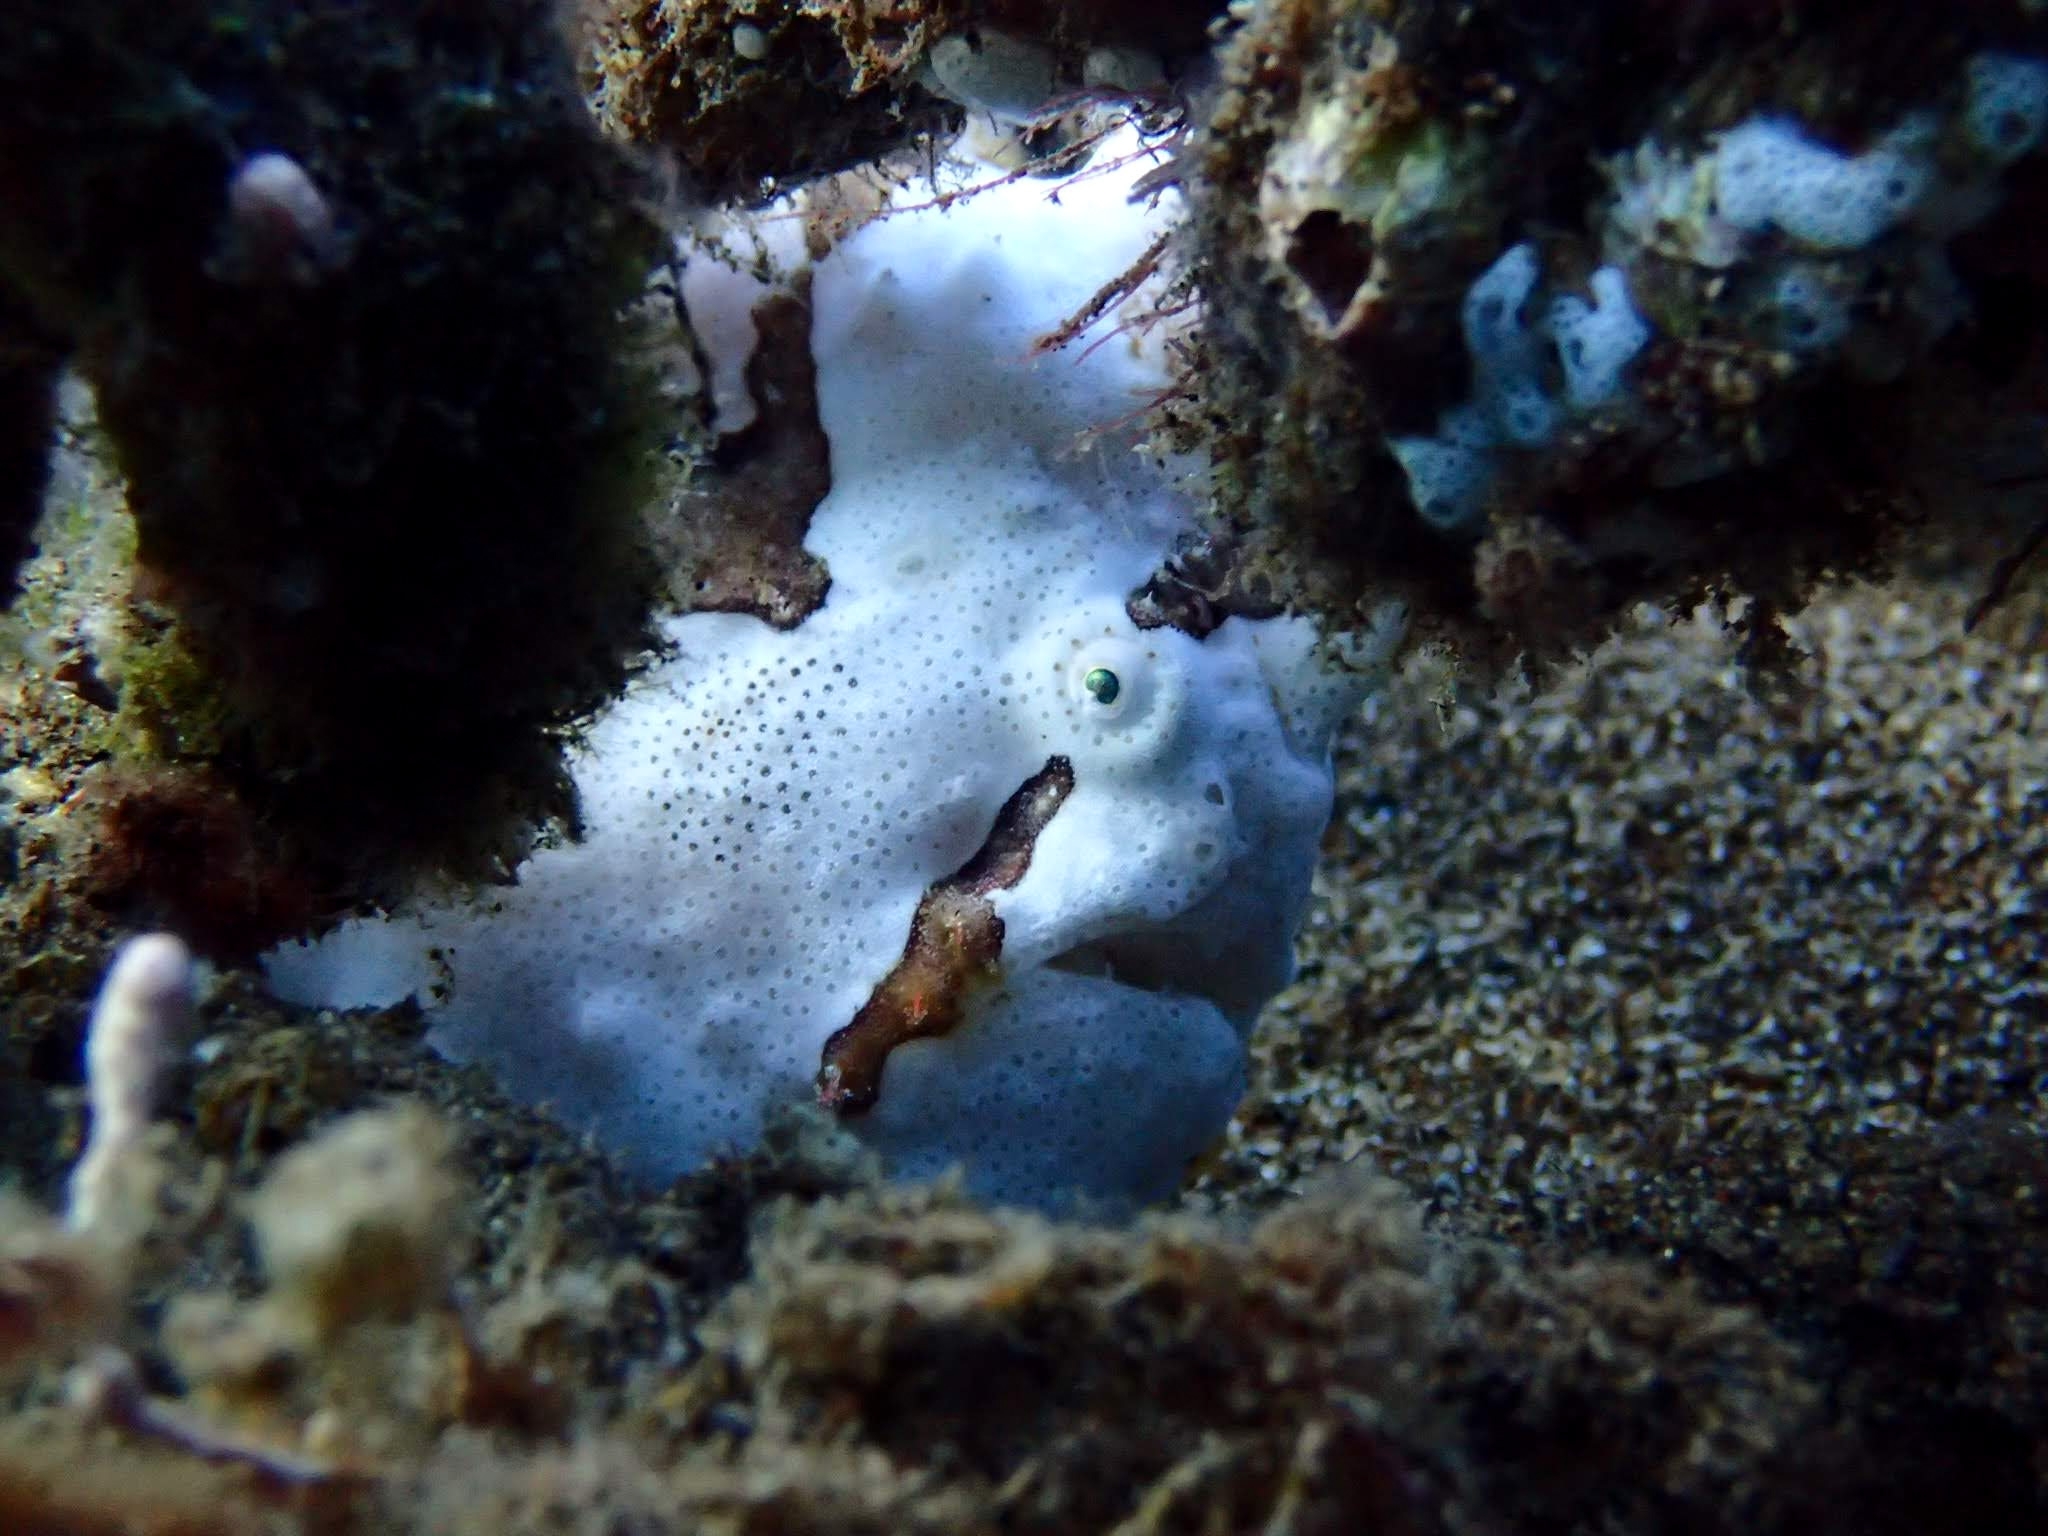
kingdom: Animalia
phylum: Chordata
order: Lophiiformes
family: Antennariidae
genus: Antennarius
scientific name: Antennarius pictus
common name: Painted frogfish
